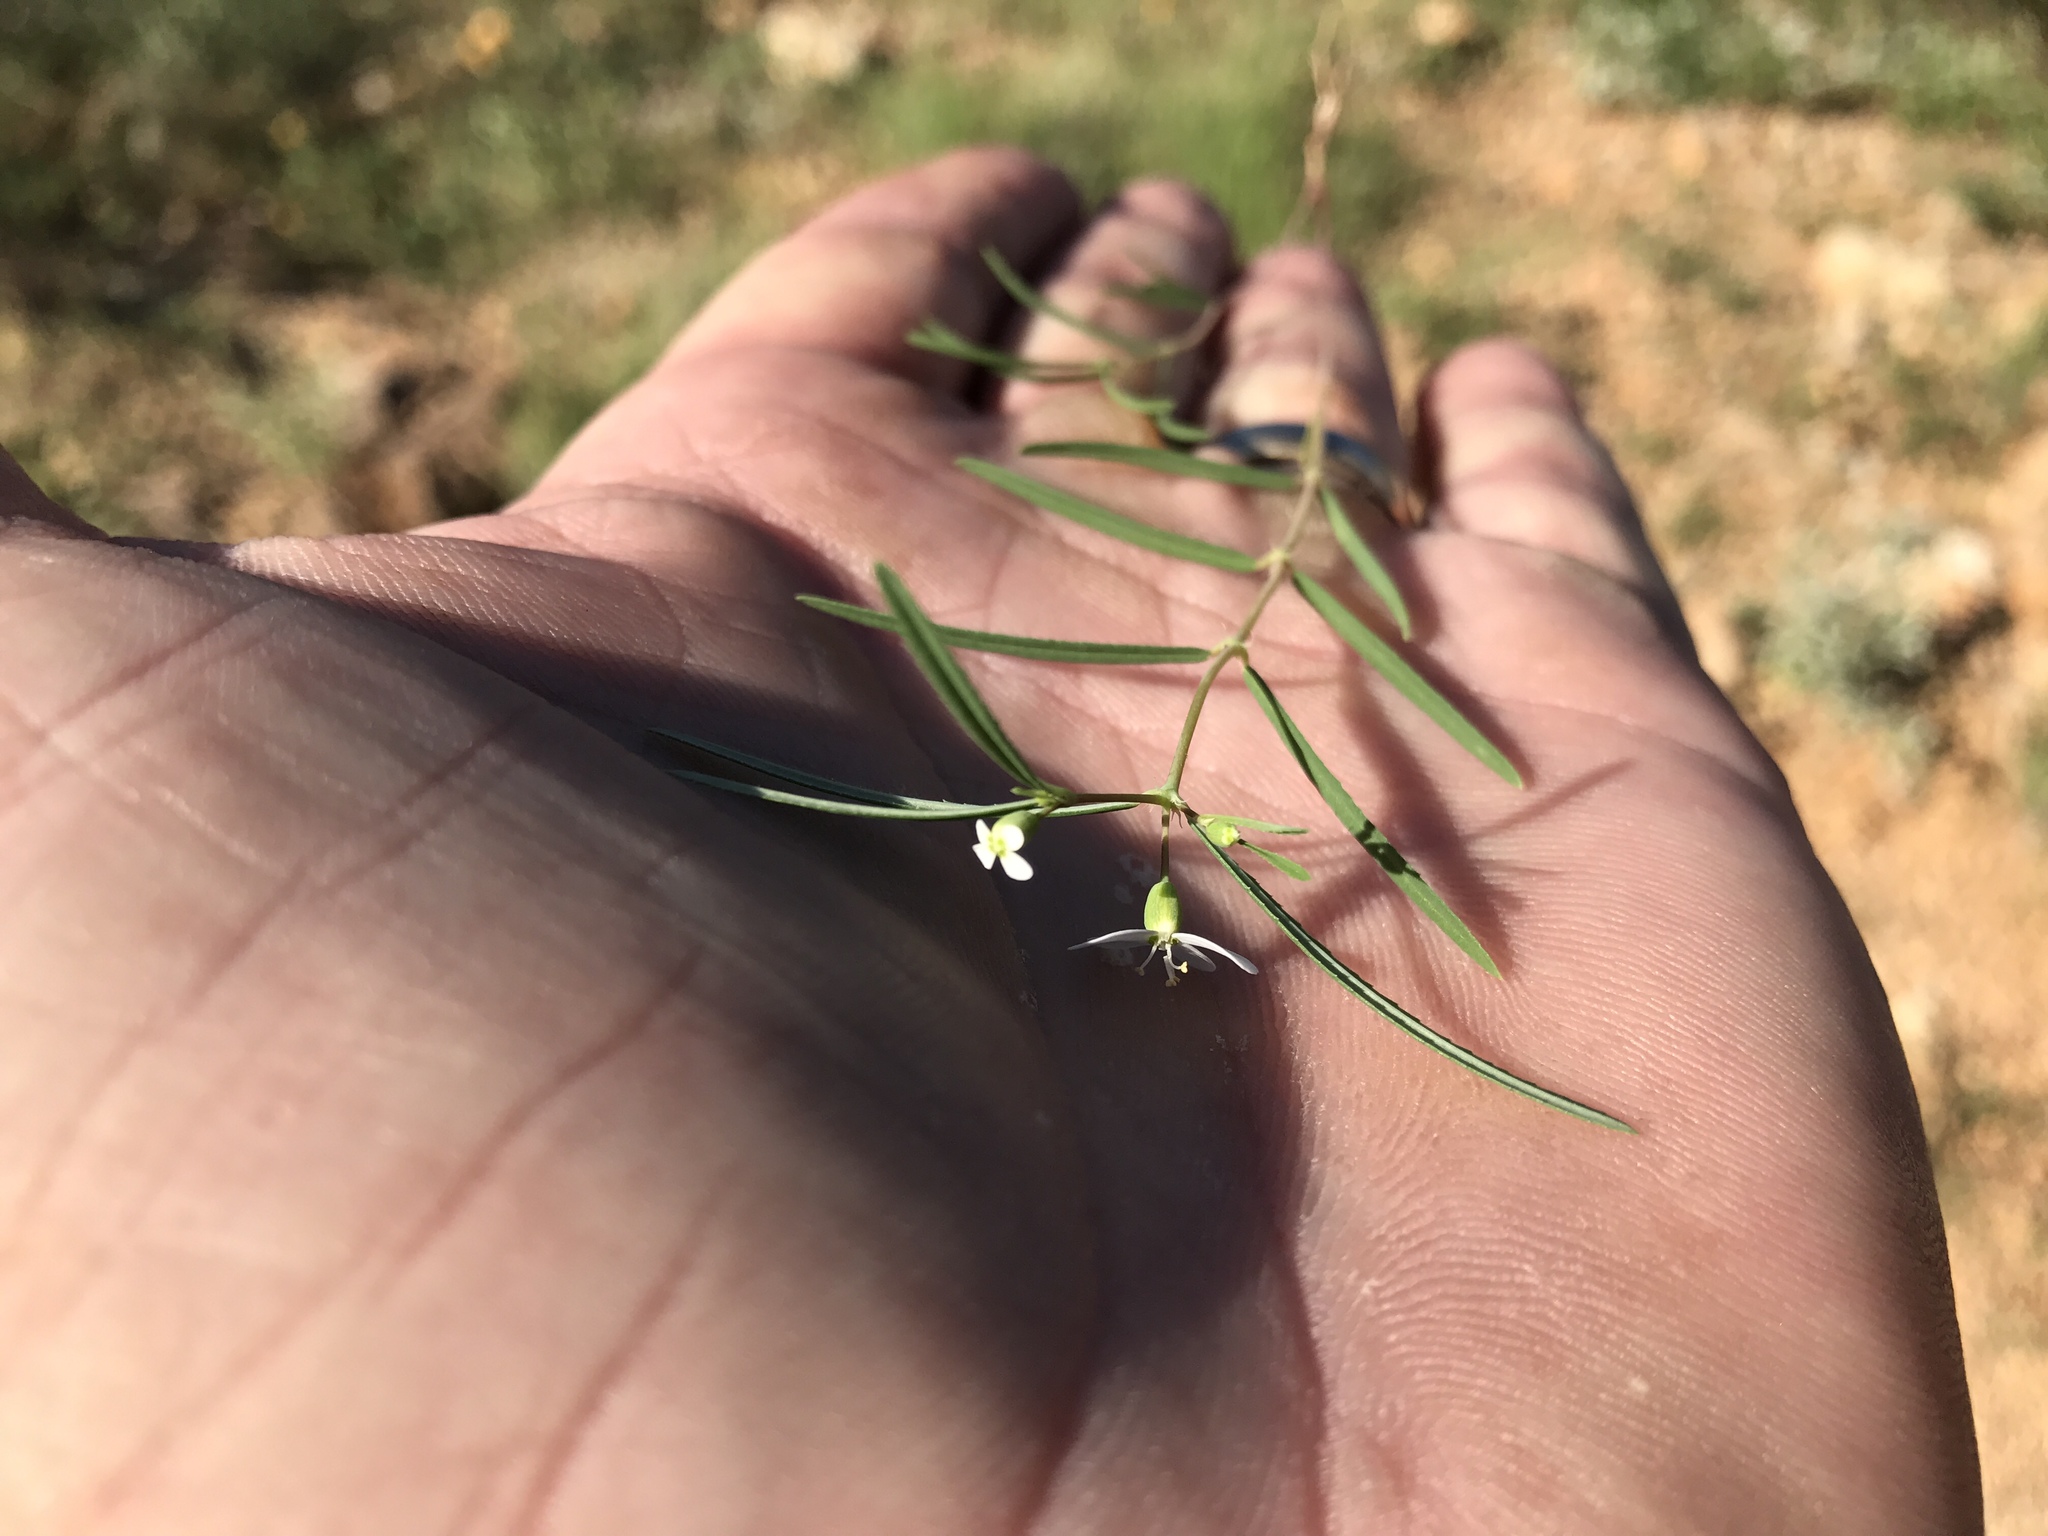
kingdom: Plantae
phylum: Tracheophyta
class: Magnoliopsida
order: Malpighiales
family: Euphorbiaceae
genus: Euphorbia
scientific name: Euphorbia florida
